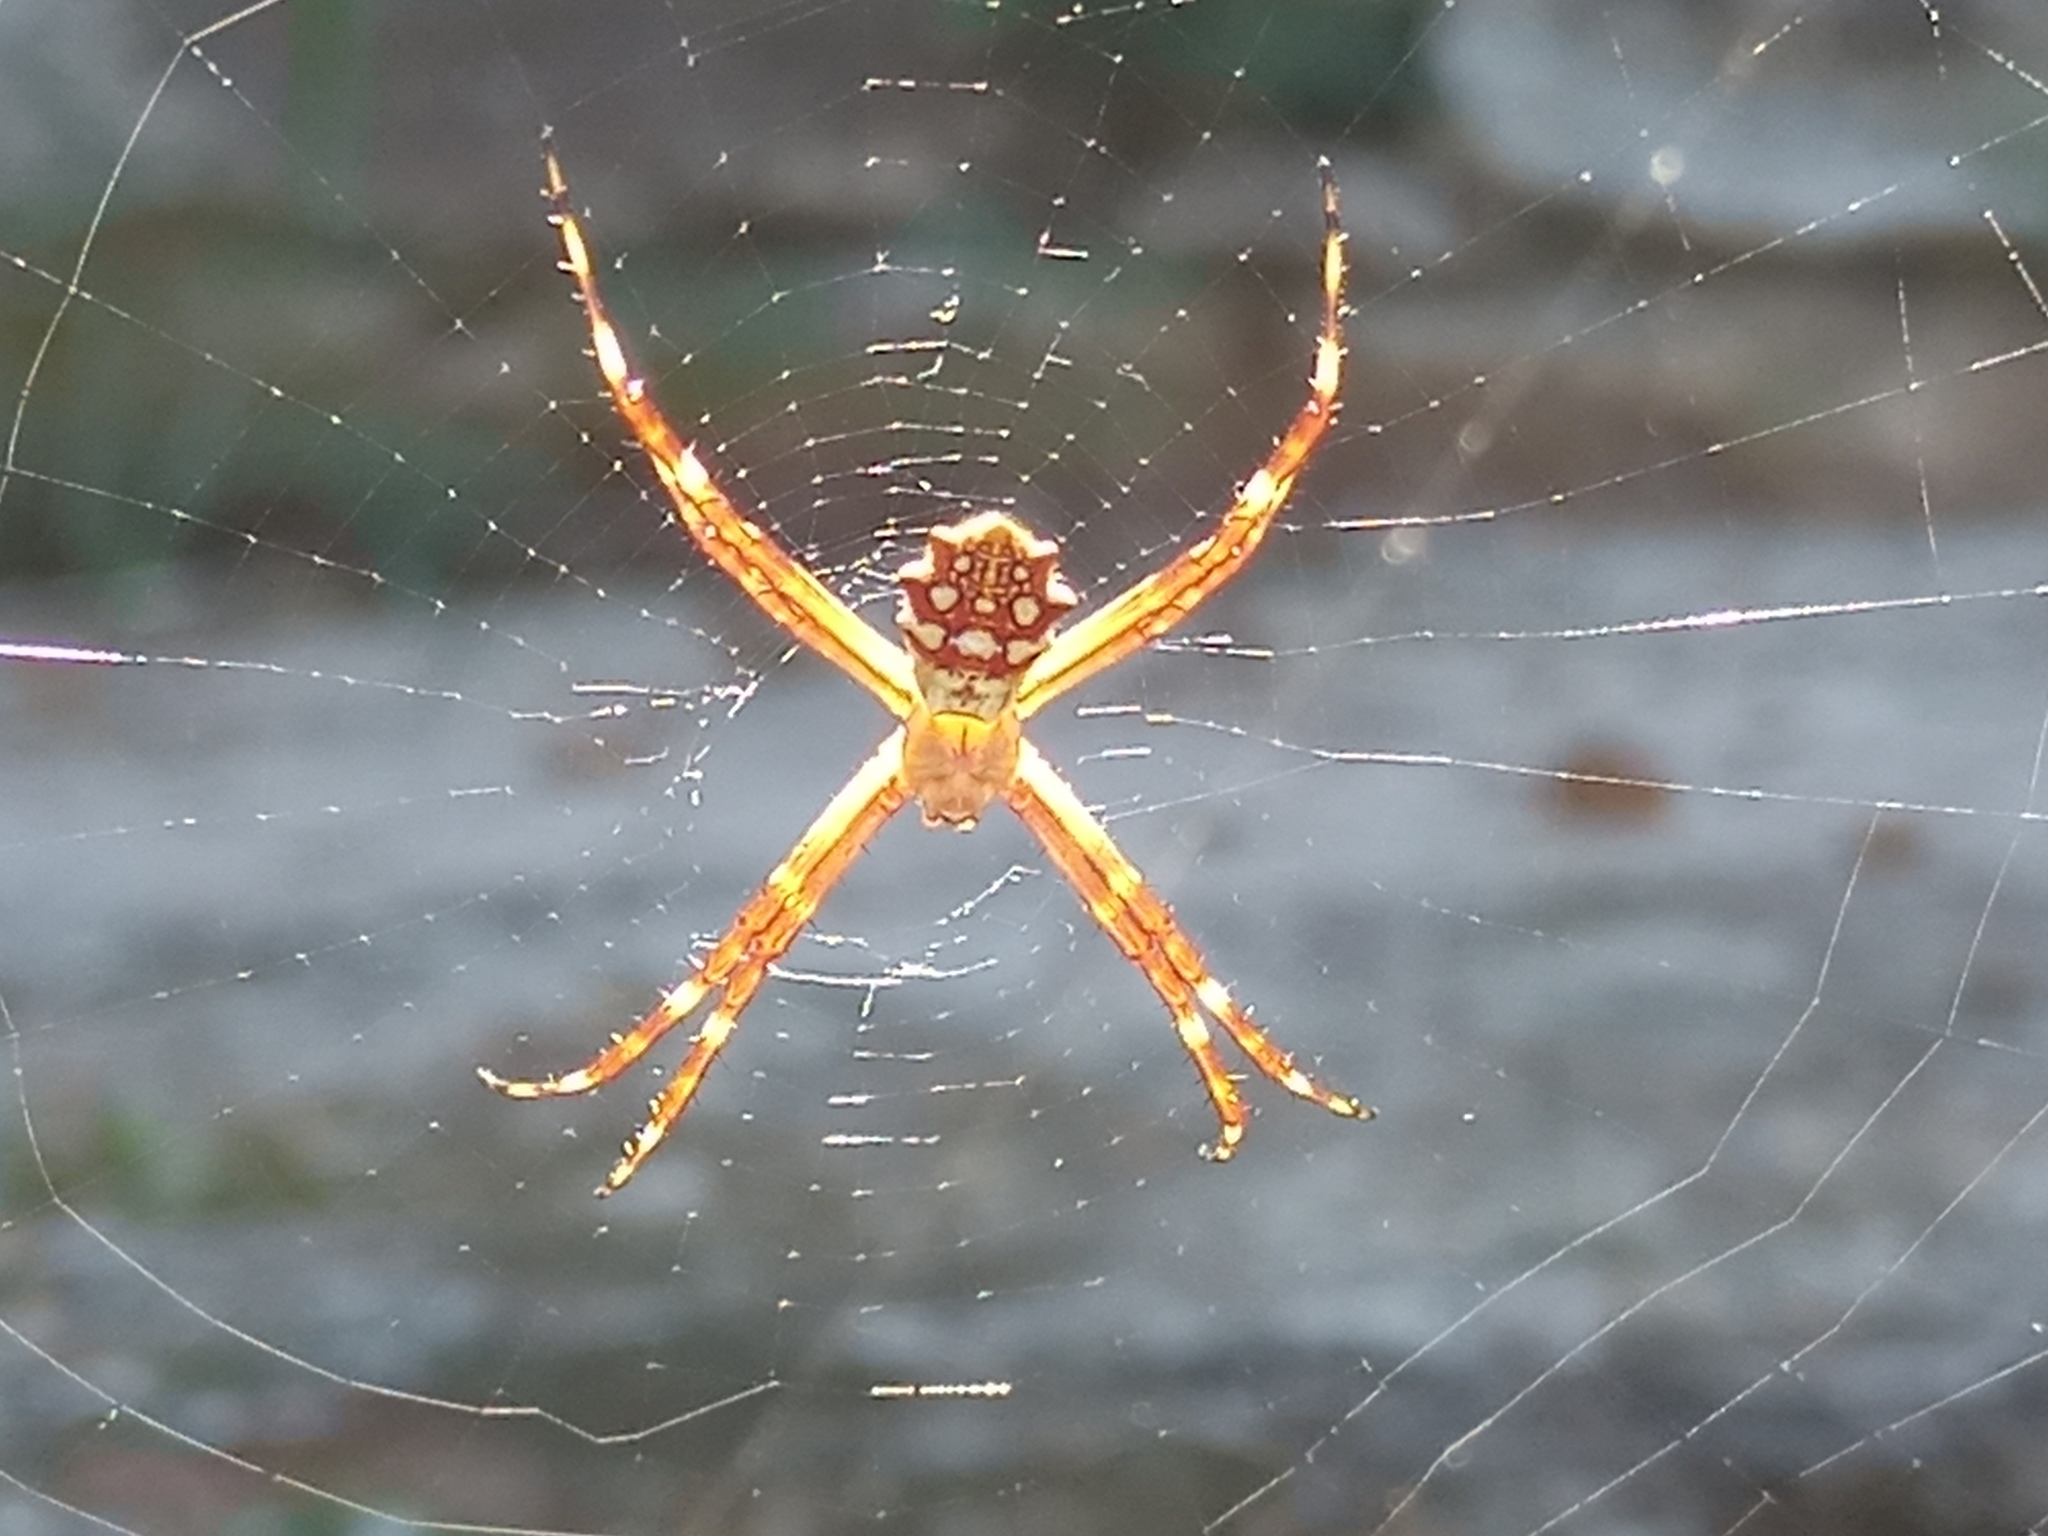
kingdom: Animalia
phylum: Arthropoda
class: Arachnida
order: Araneae
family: Araneidae
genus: Argiope
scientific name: Argiope argentata
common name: Orb weavers
